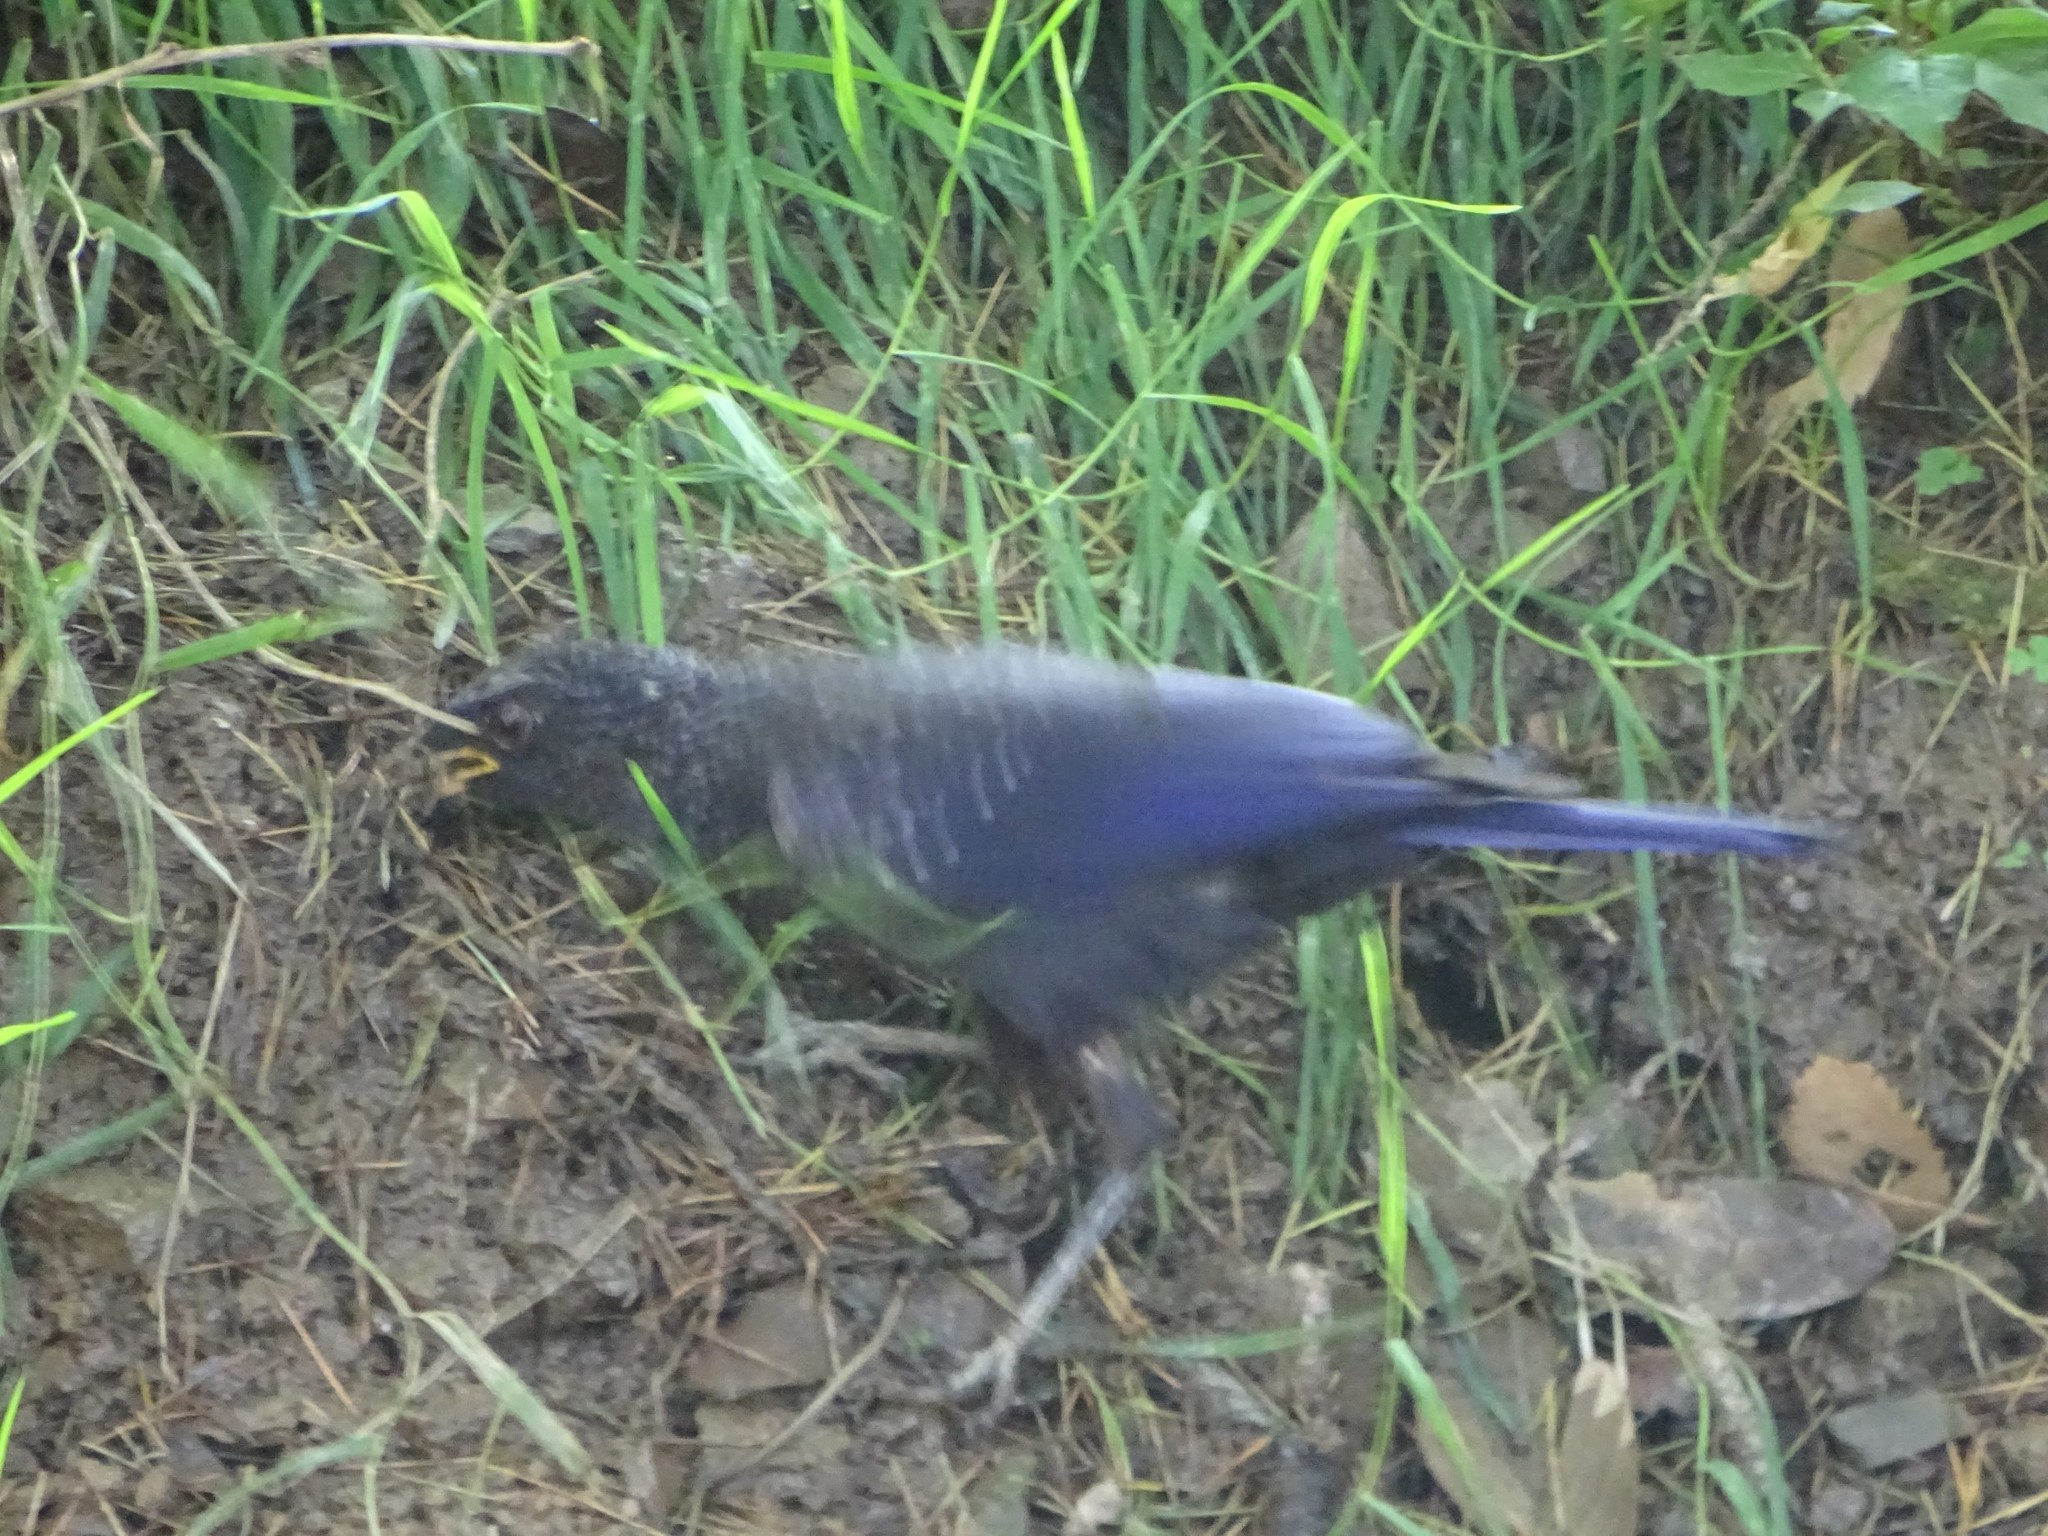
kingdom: Animalia
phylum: Chordata
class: Aves
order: Passeriformes
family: Muscicapidae
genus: Myophonus
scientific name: Myophonus caeruleus
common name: Blue whistling-thrush
